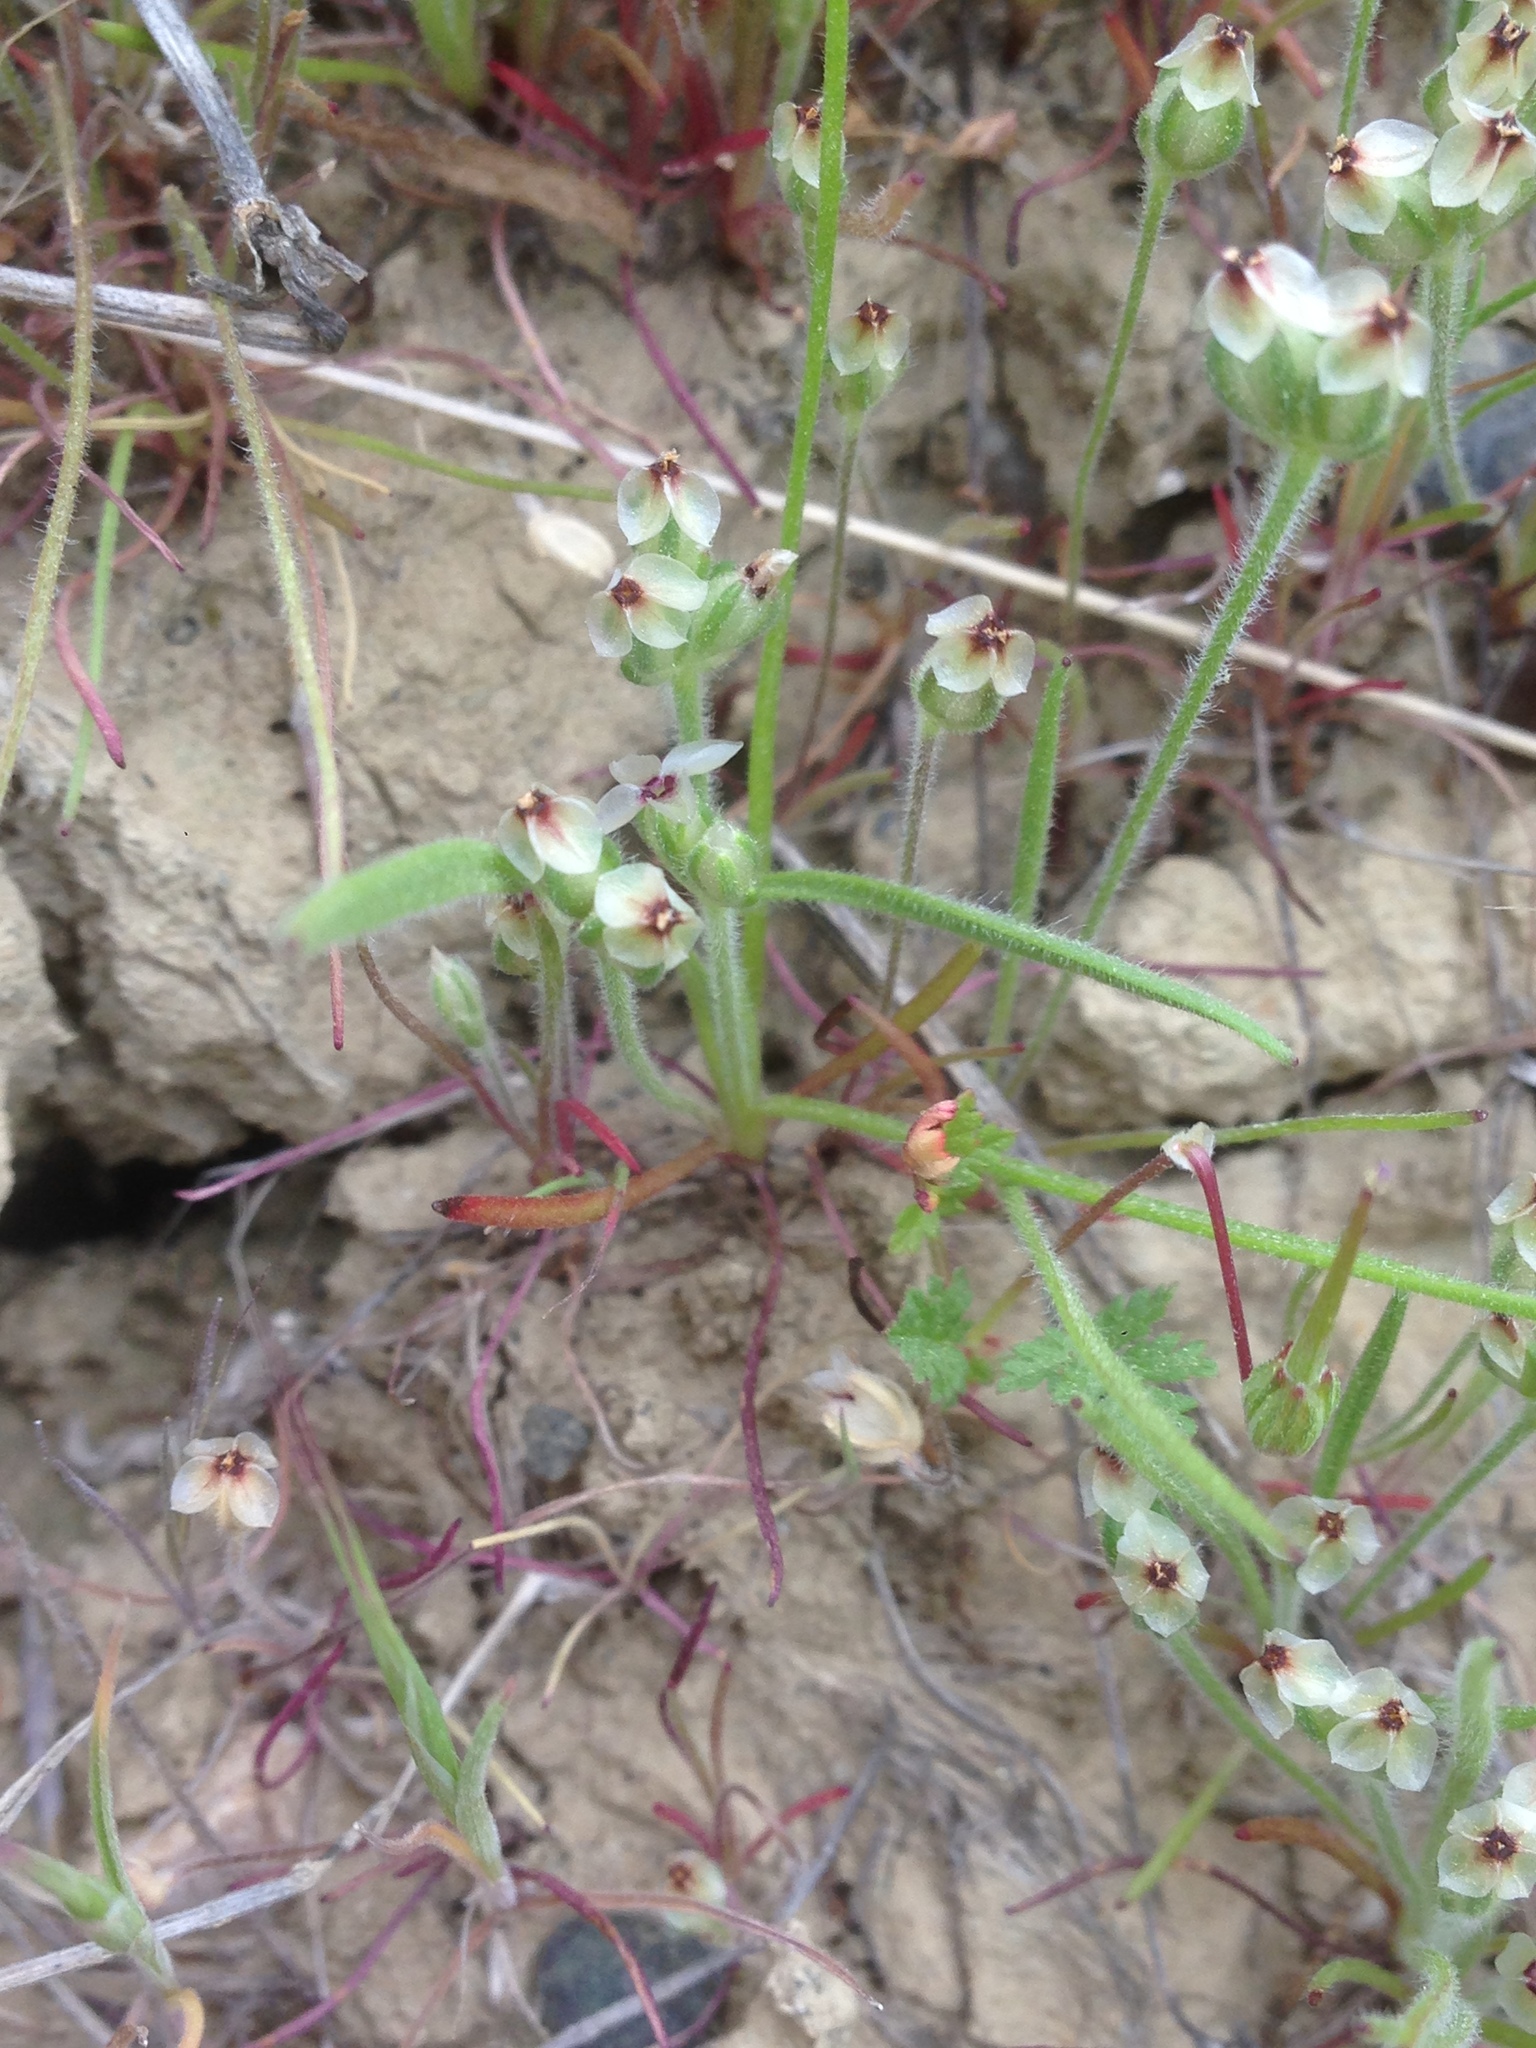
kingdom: Plantae
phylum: Tracheophyta
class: Magnoliopsida
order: Lamiales
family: Plantaginaceae
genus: Plantago
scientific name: Plantago erecta
